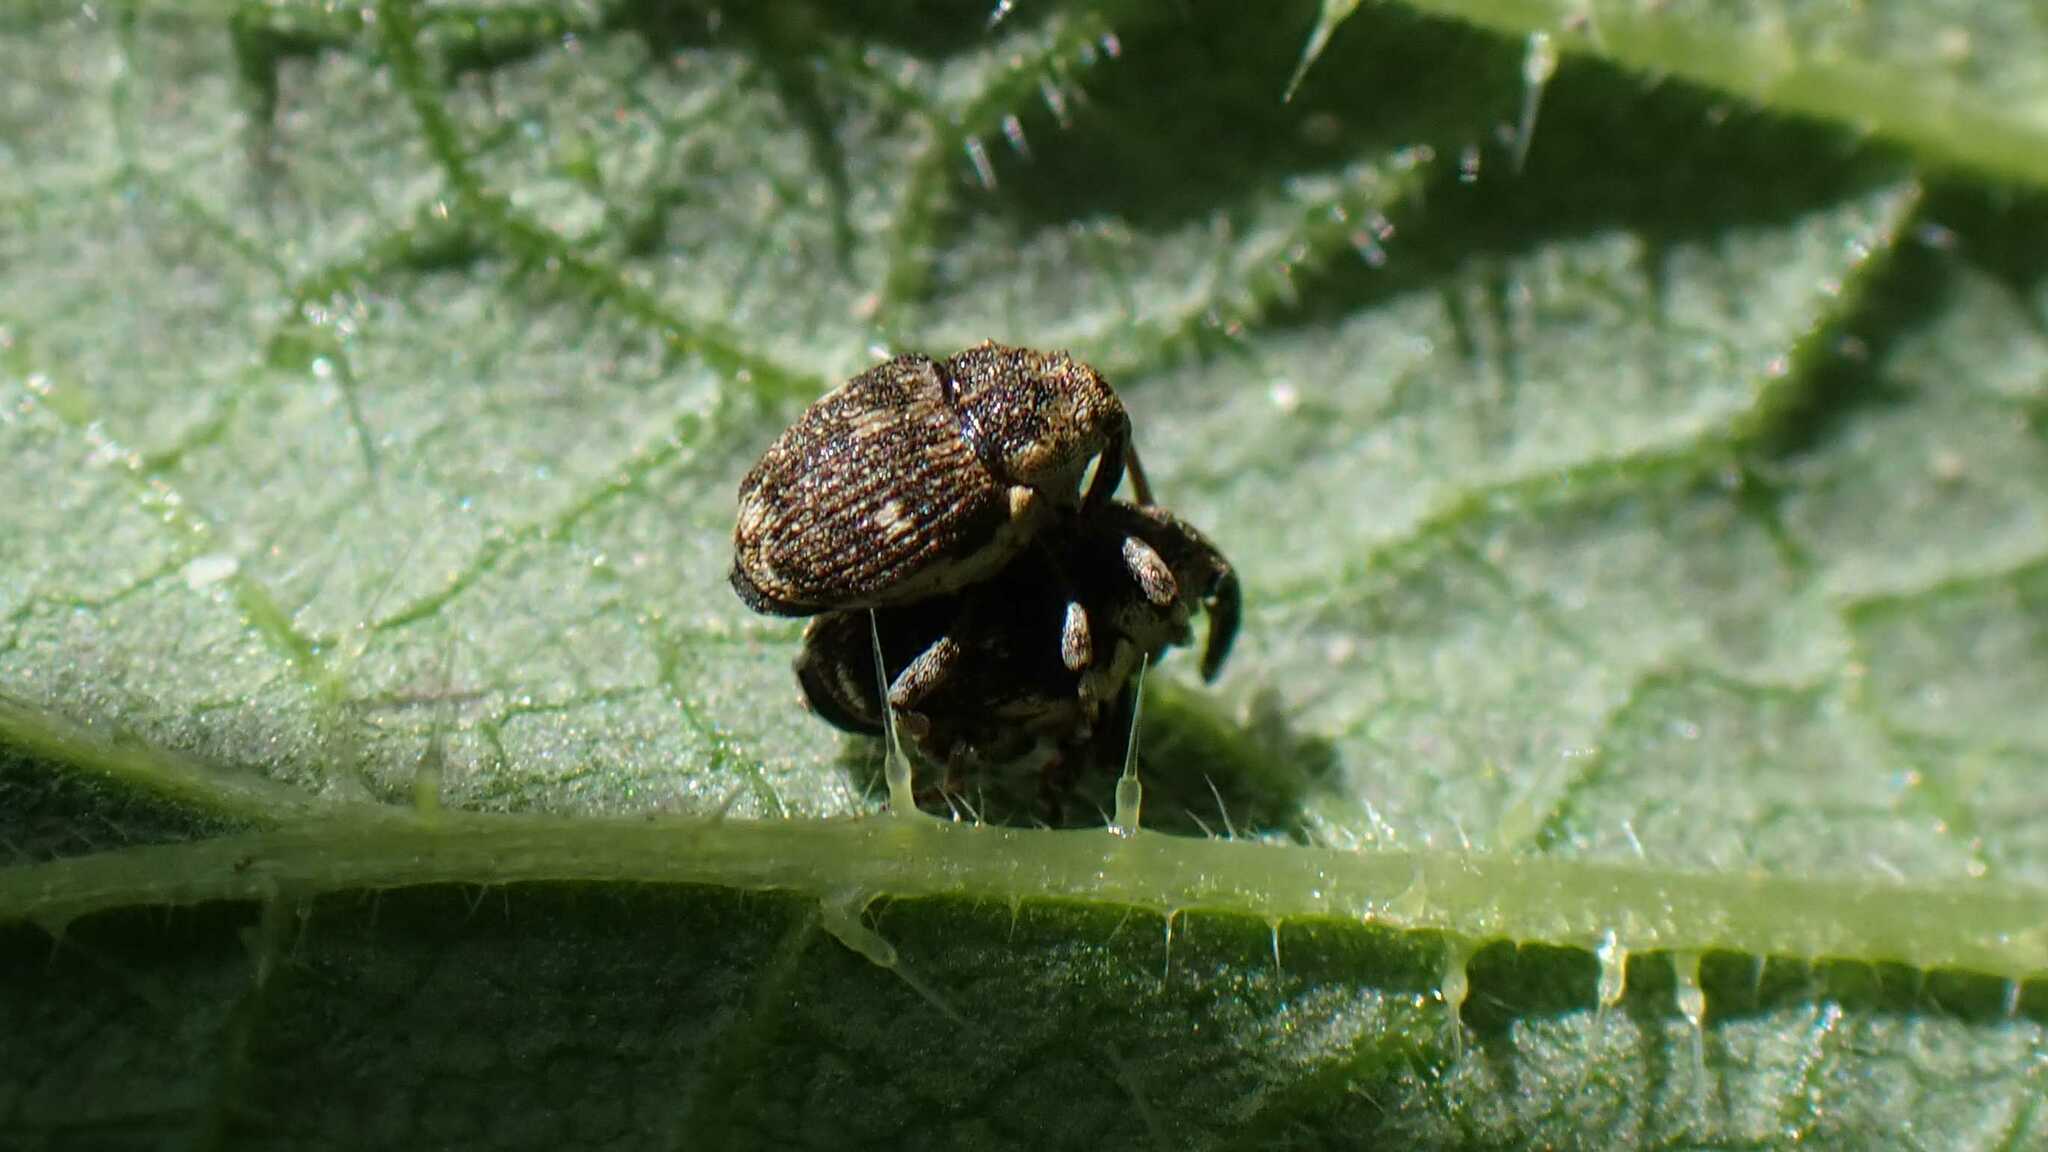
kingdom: Animalia
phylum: Arthropoda
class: Insecta
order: Coleoptera
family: Curculionidae
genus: Nedyus
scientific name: Nedyus quadrimaculatus
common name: Small nettle weevil
